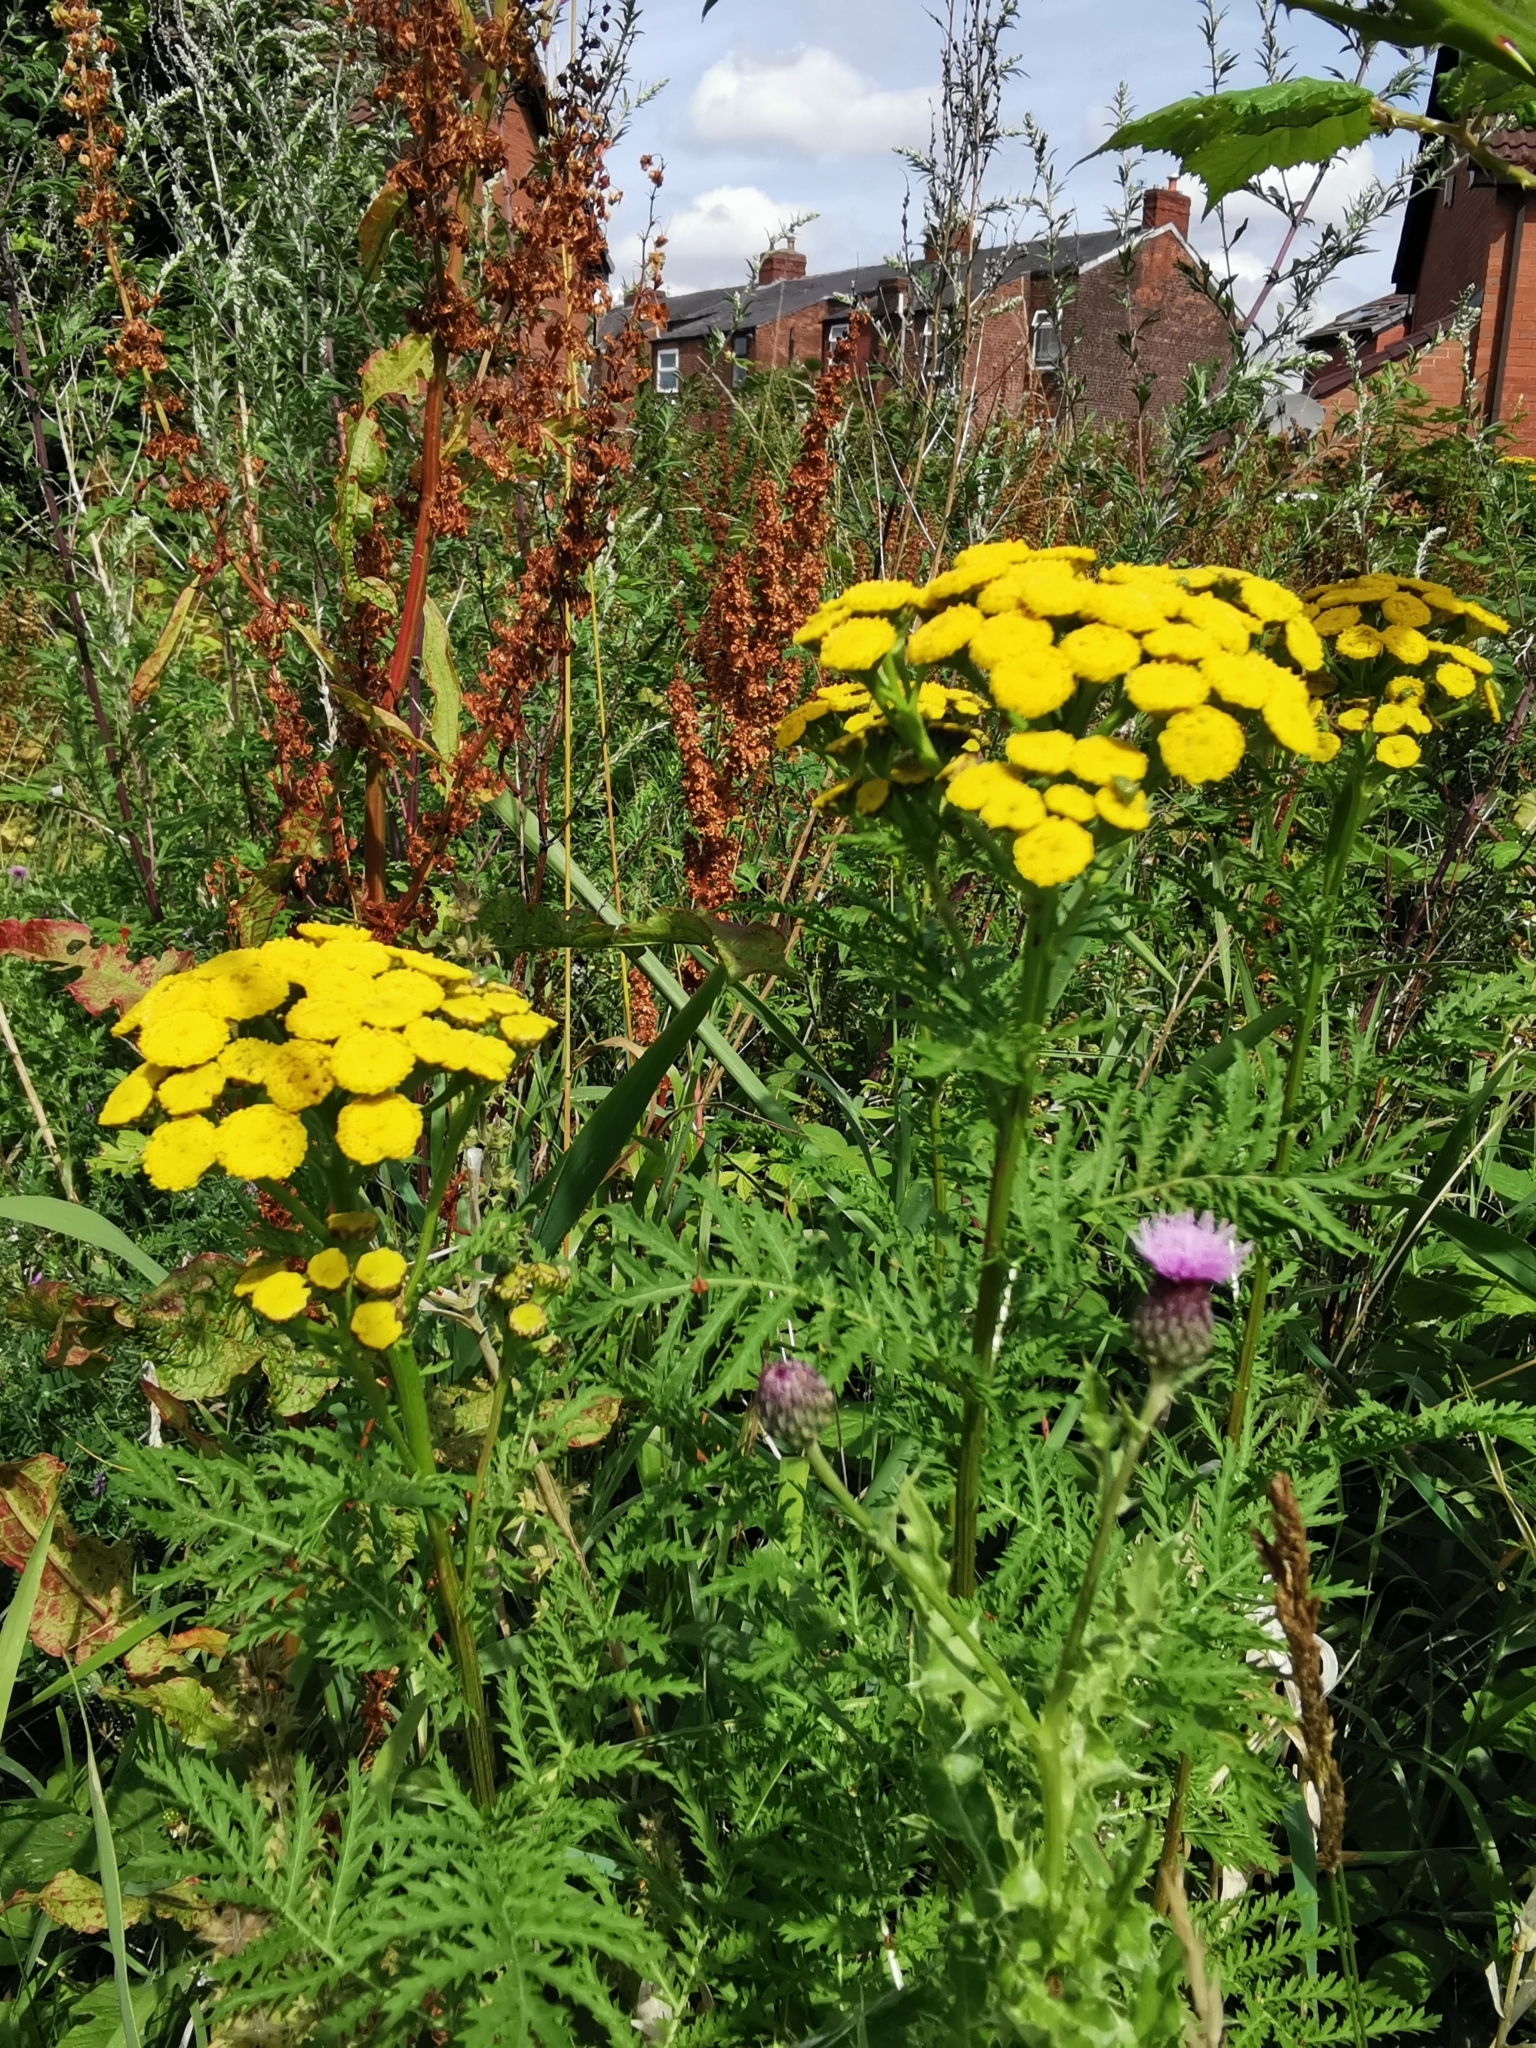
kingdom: Plantae
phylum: Tracheophyta
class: Magnoliopsida
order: Asterales
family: Asteraceae
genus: Tanacetum
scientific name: Tanacetum vulgare
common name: Common tansy
